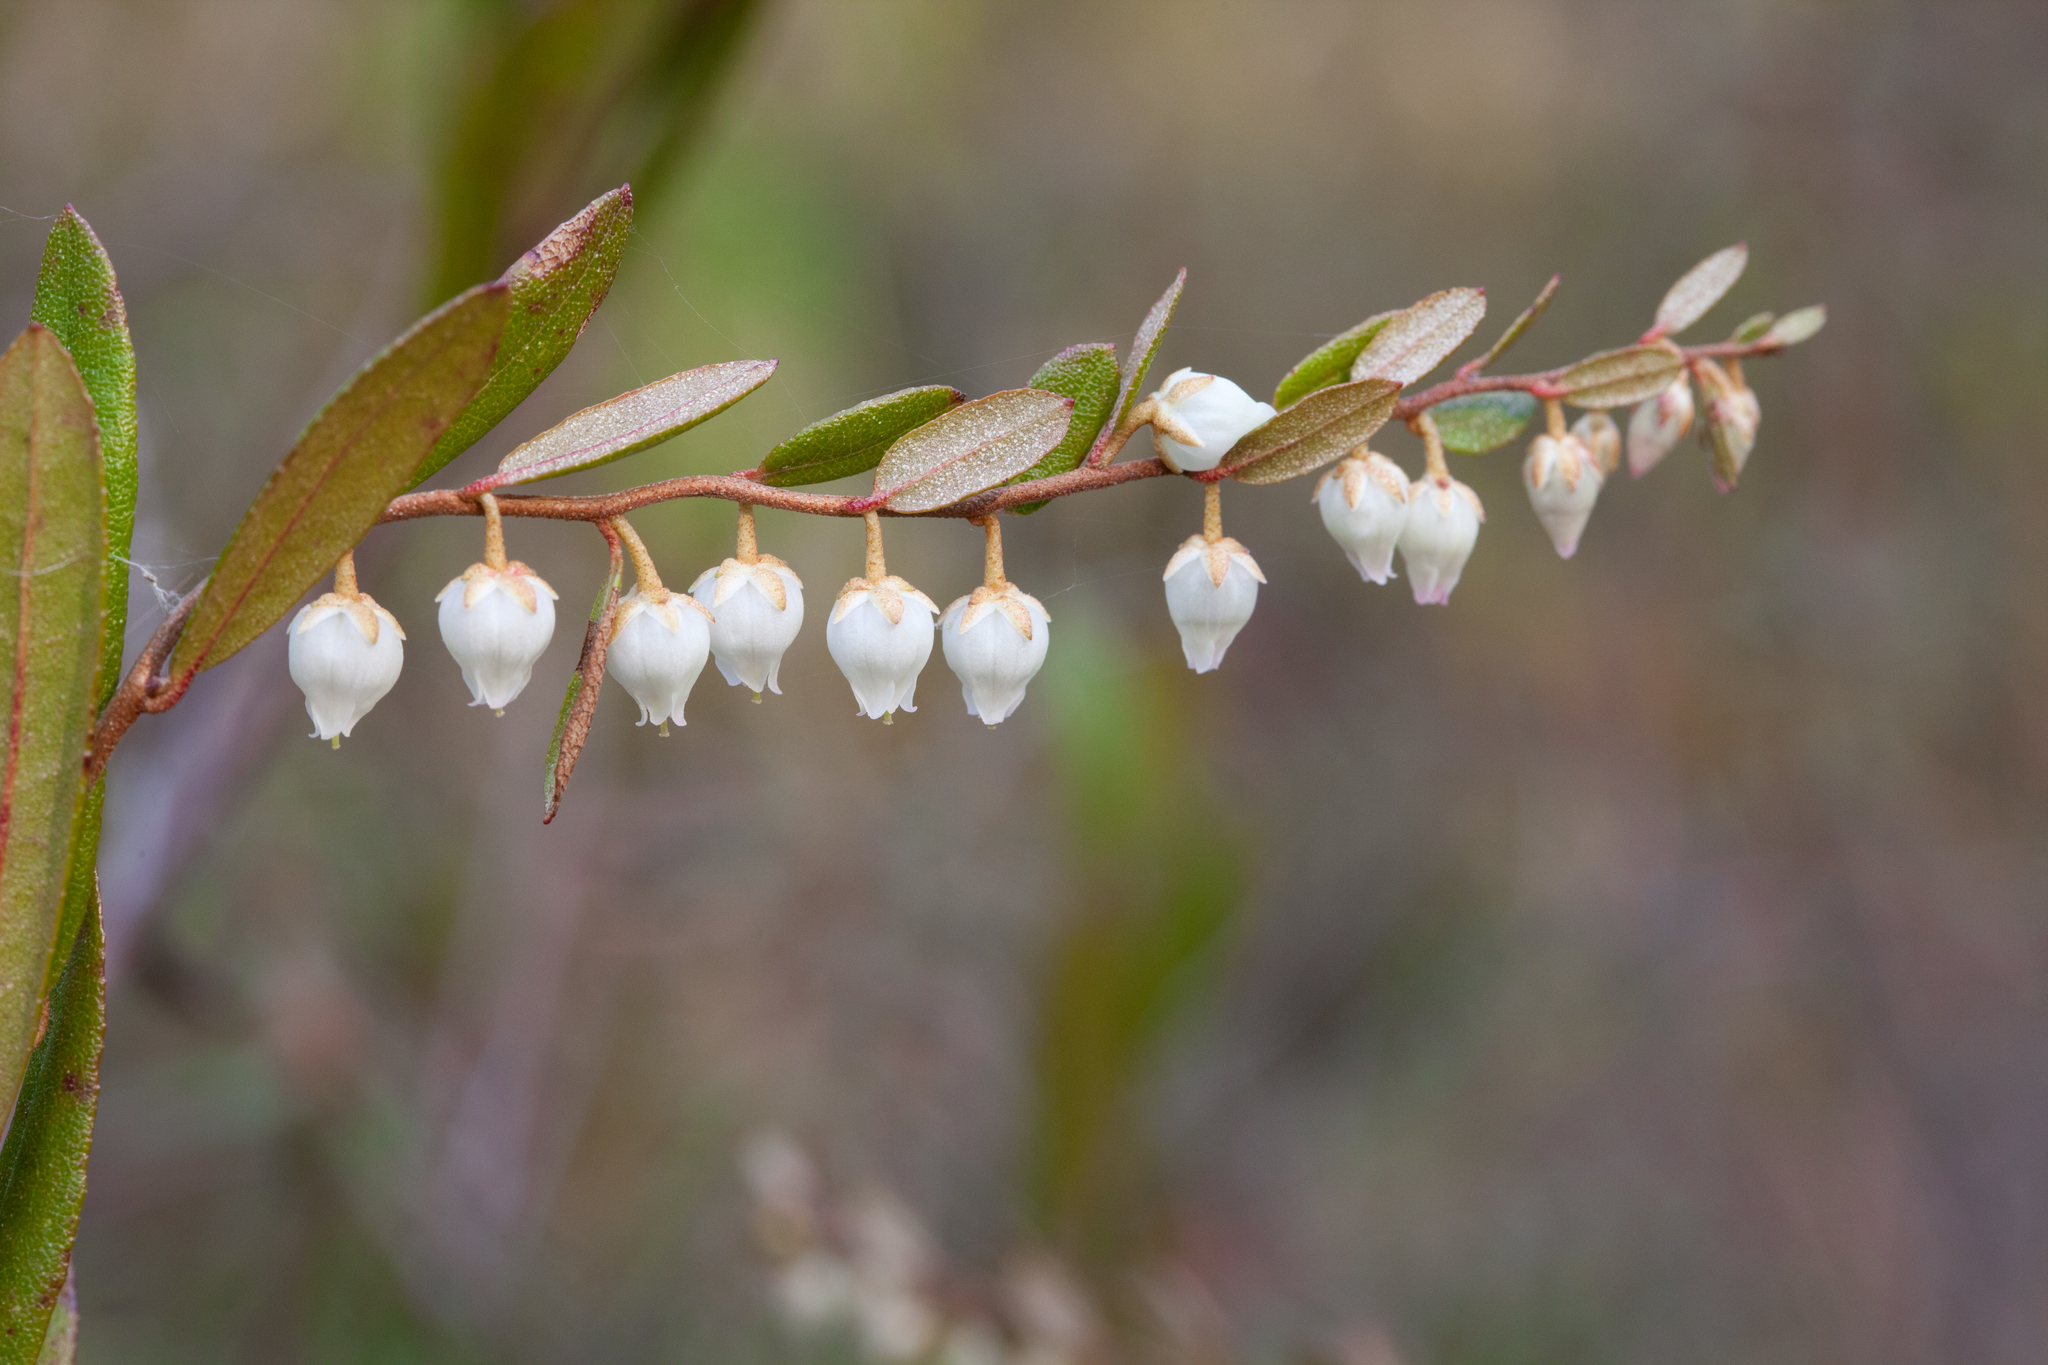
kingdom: Plantae
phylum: Tracheophyta
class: Magnoliopsida
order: Ericales
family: Ericaceae
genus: Chamaedaphne
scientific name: Chamaedaphne calyculata
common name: Leatherleaf
